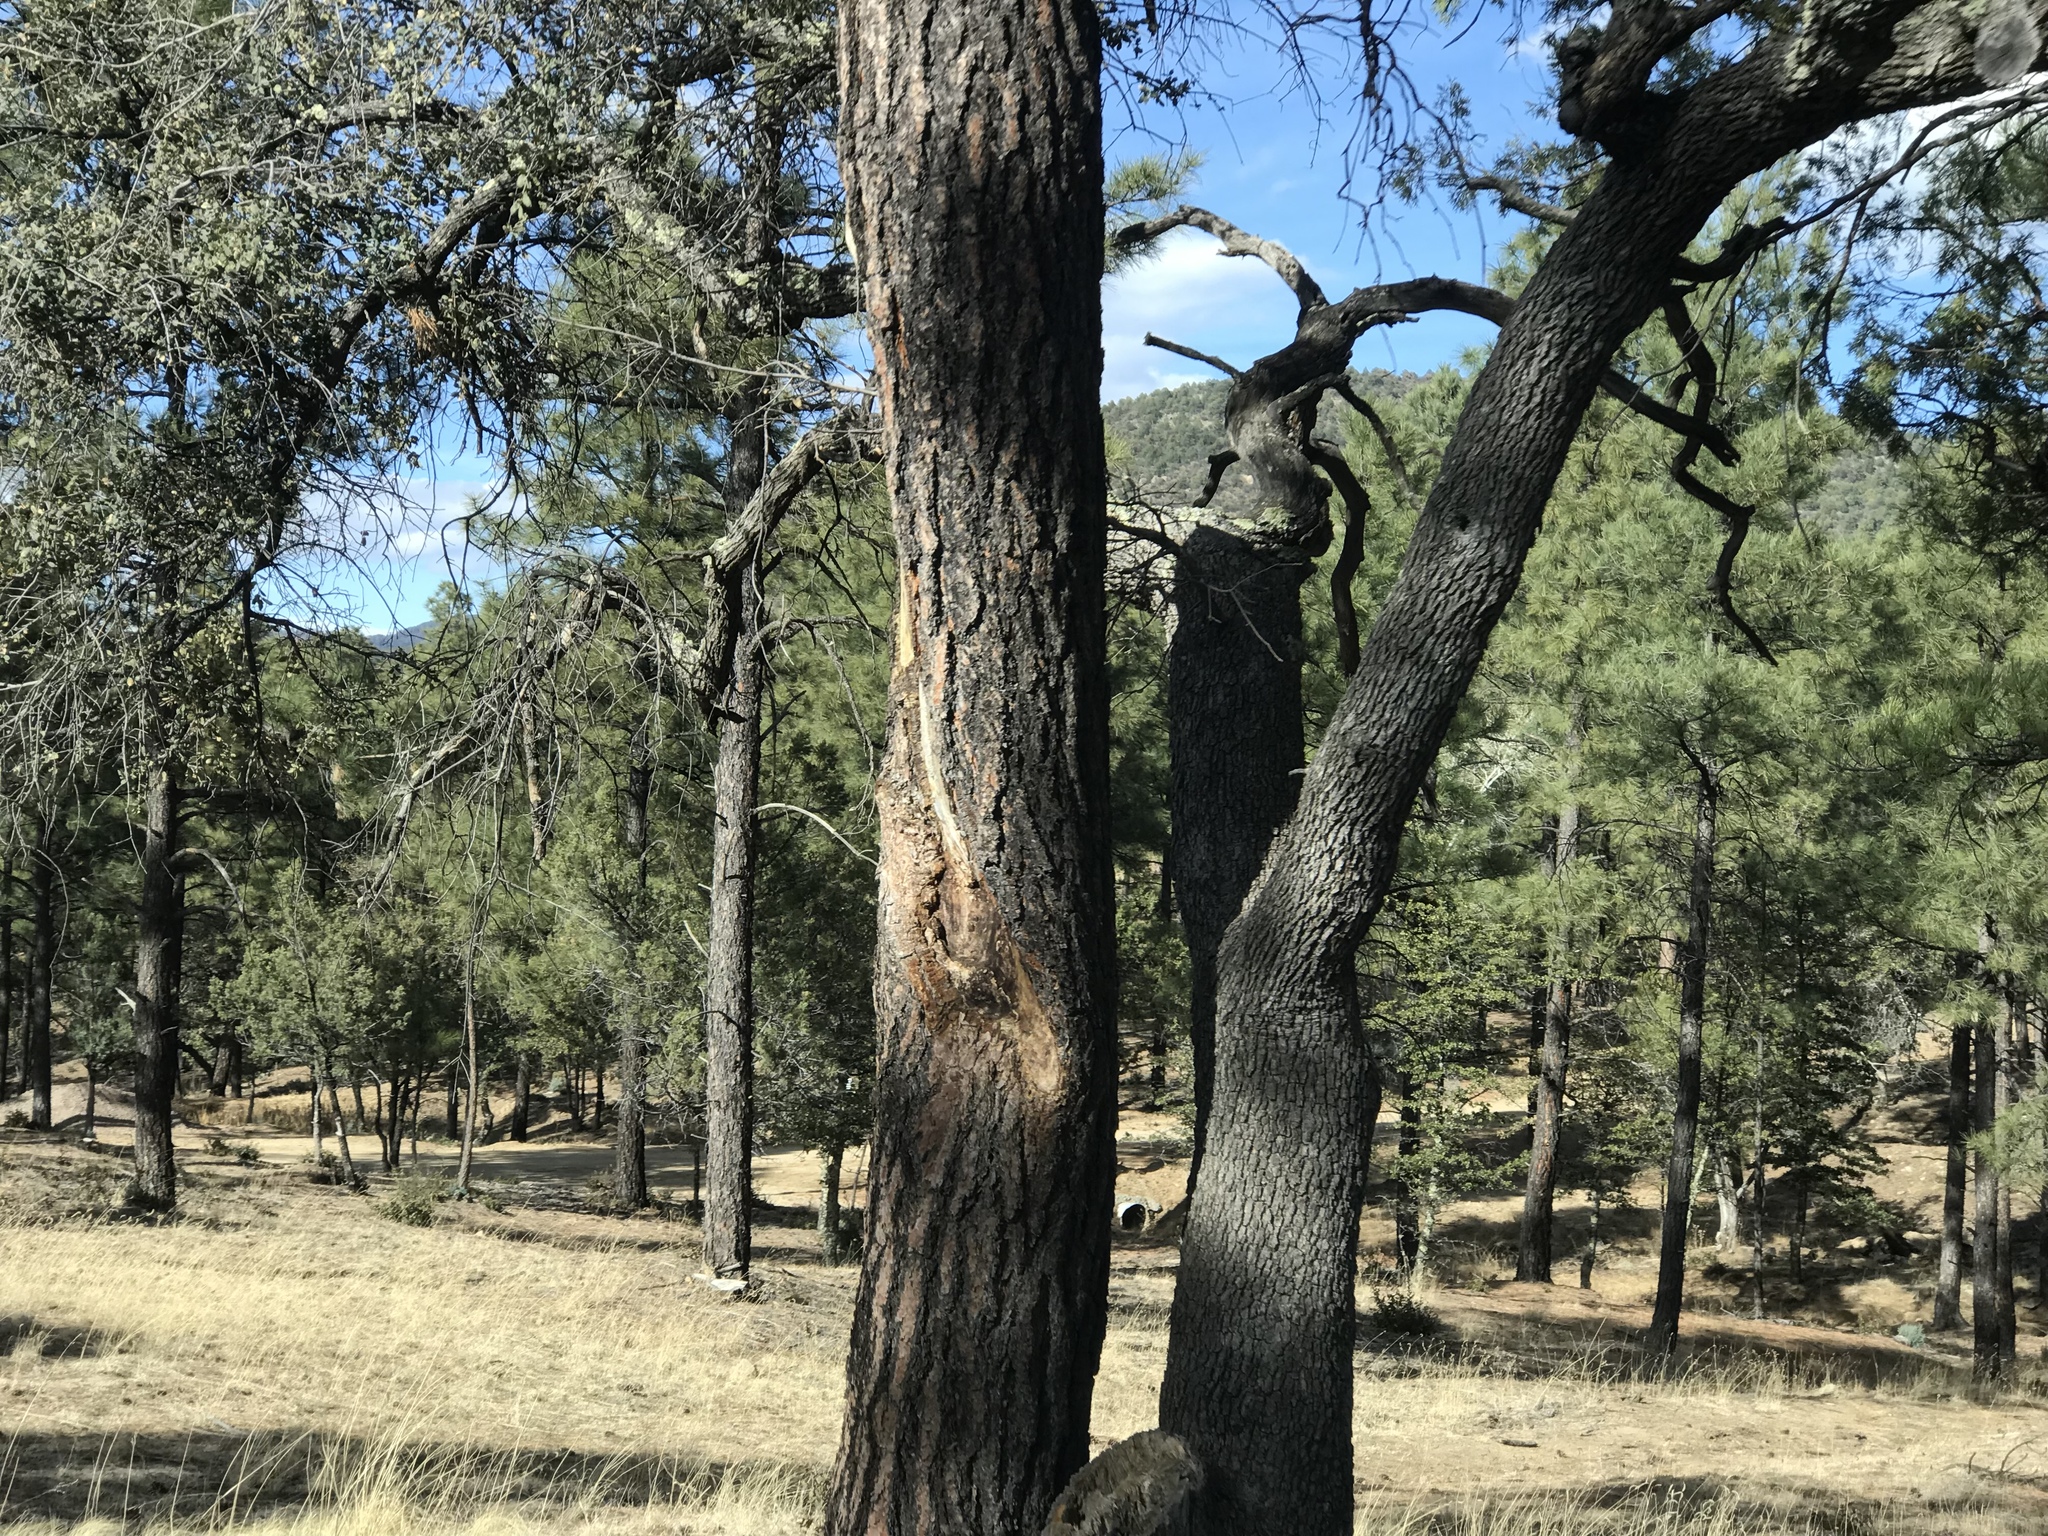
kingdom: Plantae
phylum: Tracheophyta
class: Pinopsida
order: Pinales
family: Pinaceae
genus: Pinus
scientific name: Pinus ponderosa
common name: Western yellow-pine
